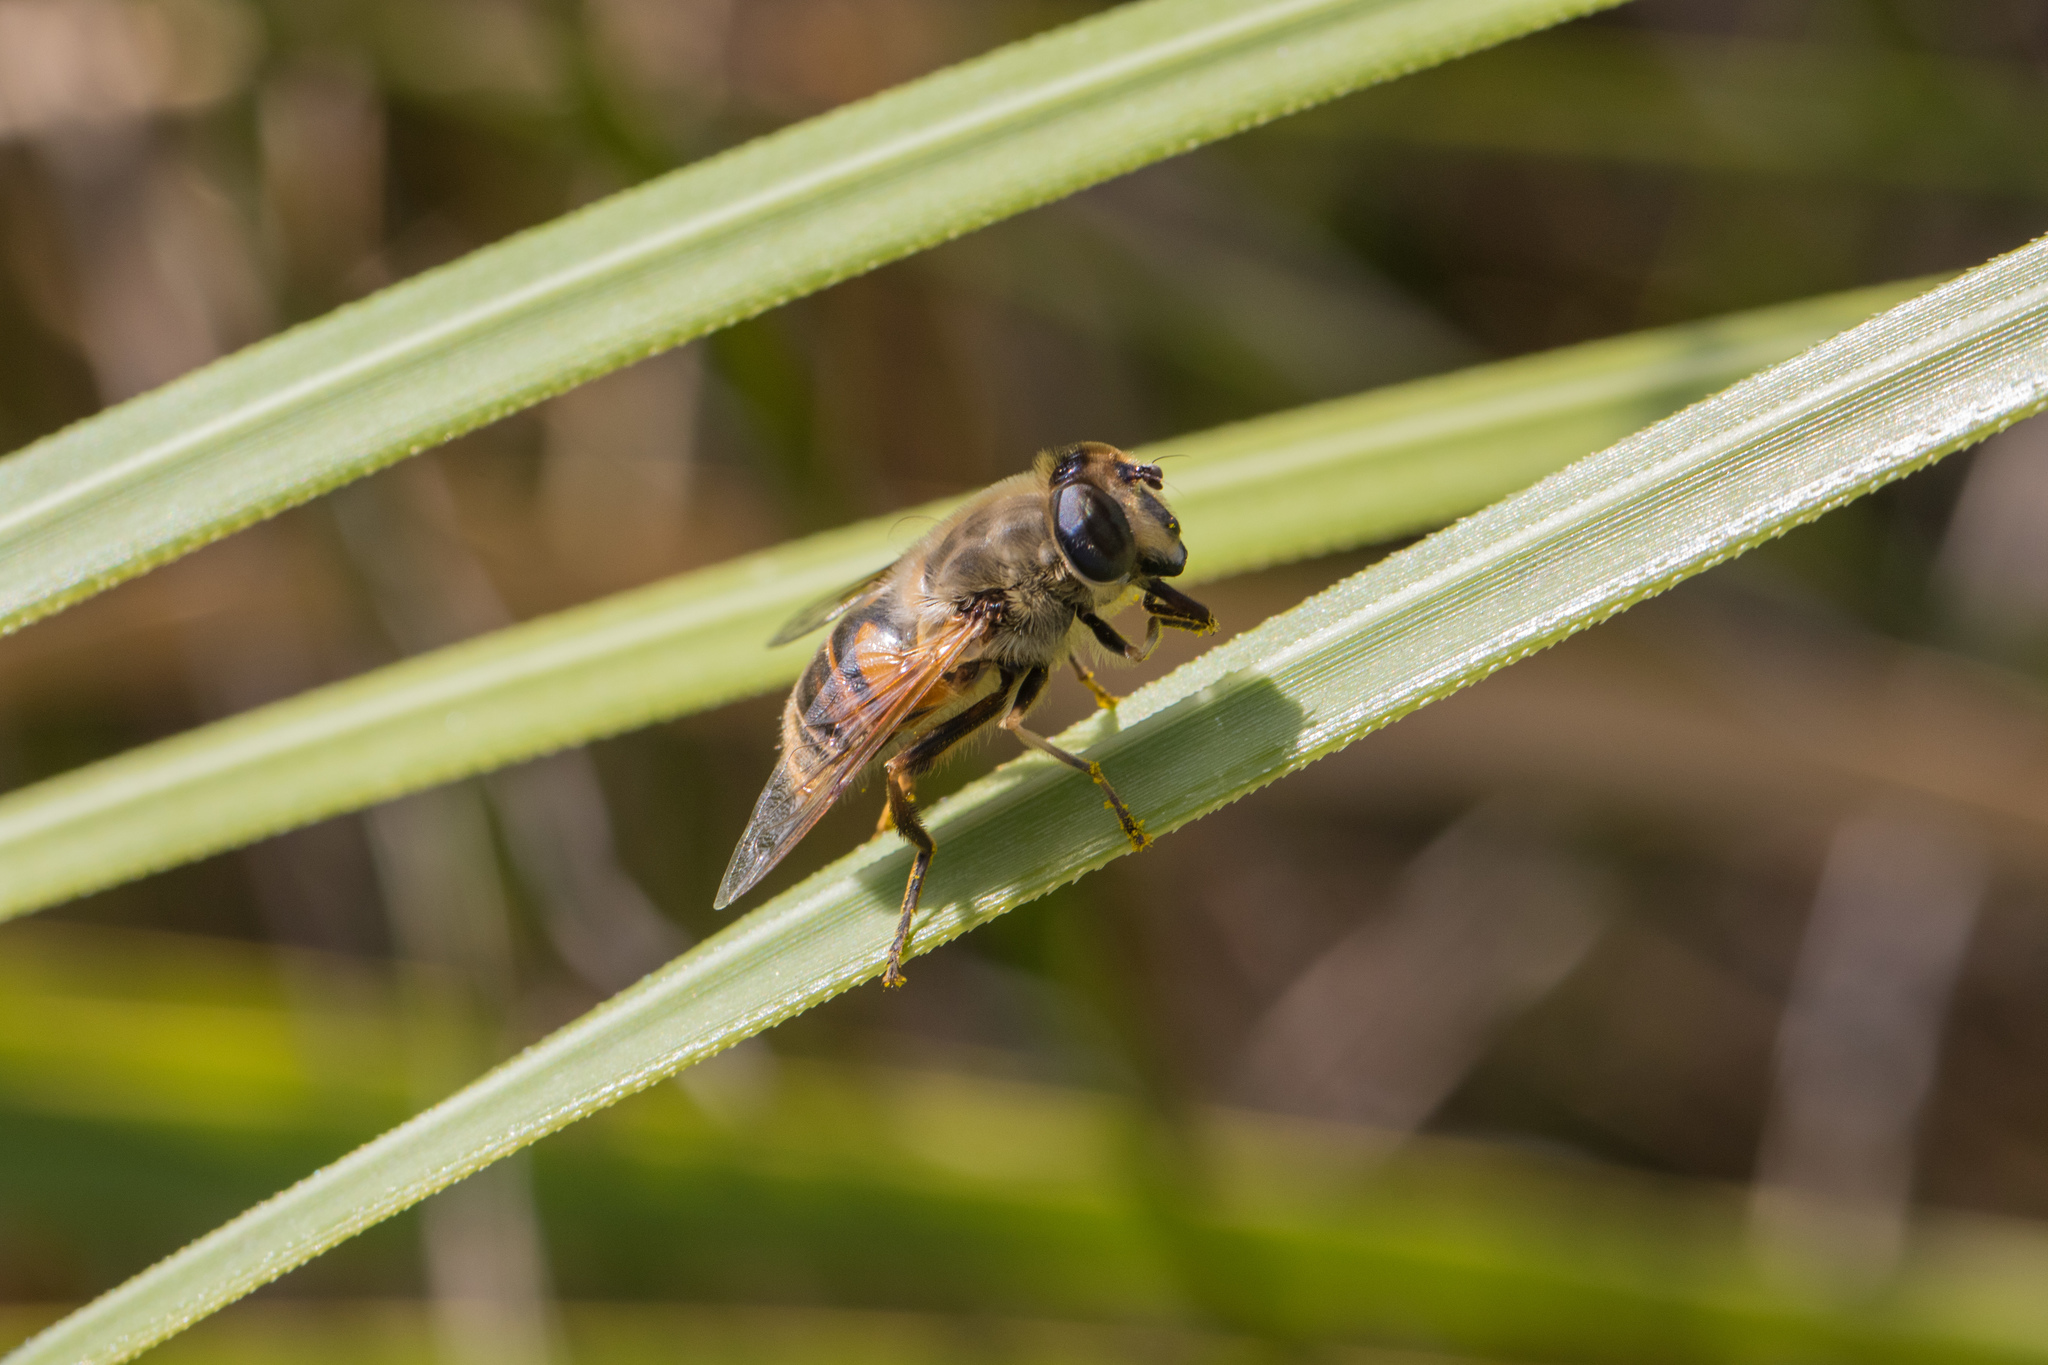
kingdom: Animalia
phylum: Arthropoda
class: Insecta
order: Diptera
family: Syrphidae
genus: Eristalis
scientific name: Eristalis tenax
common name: Drone fly
